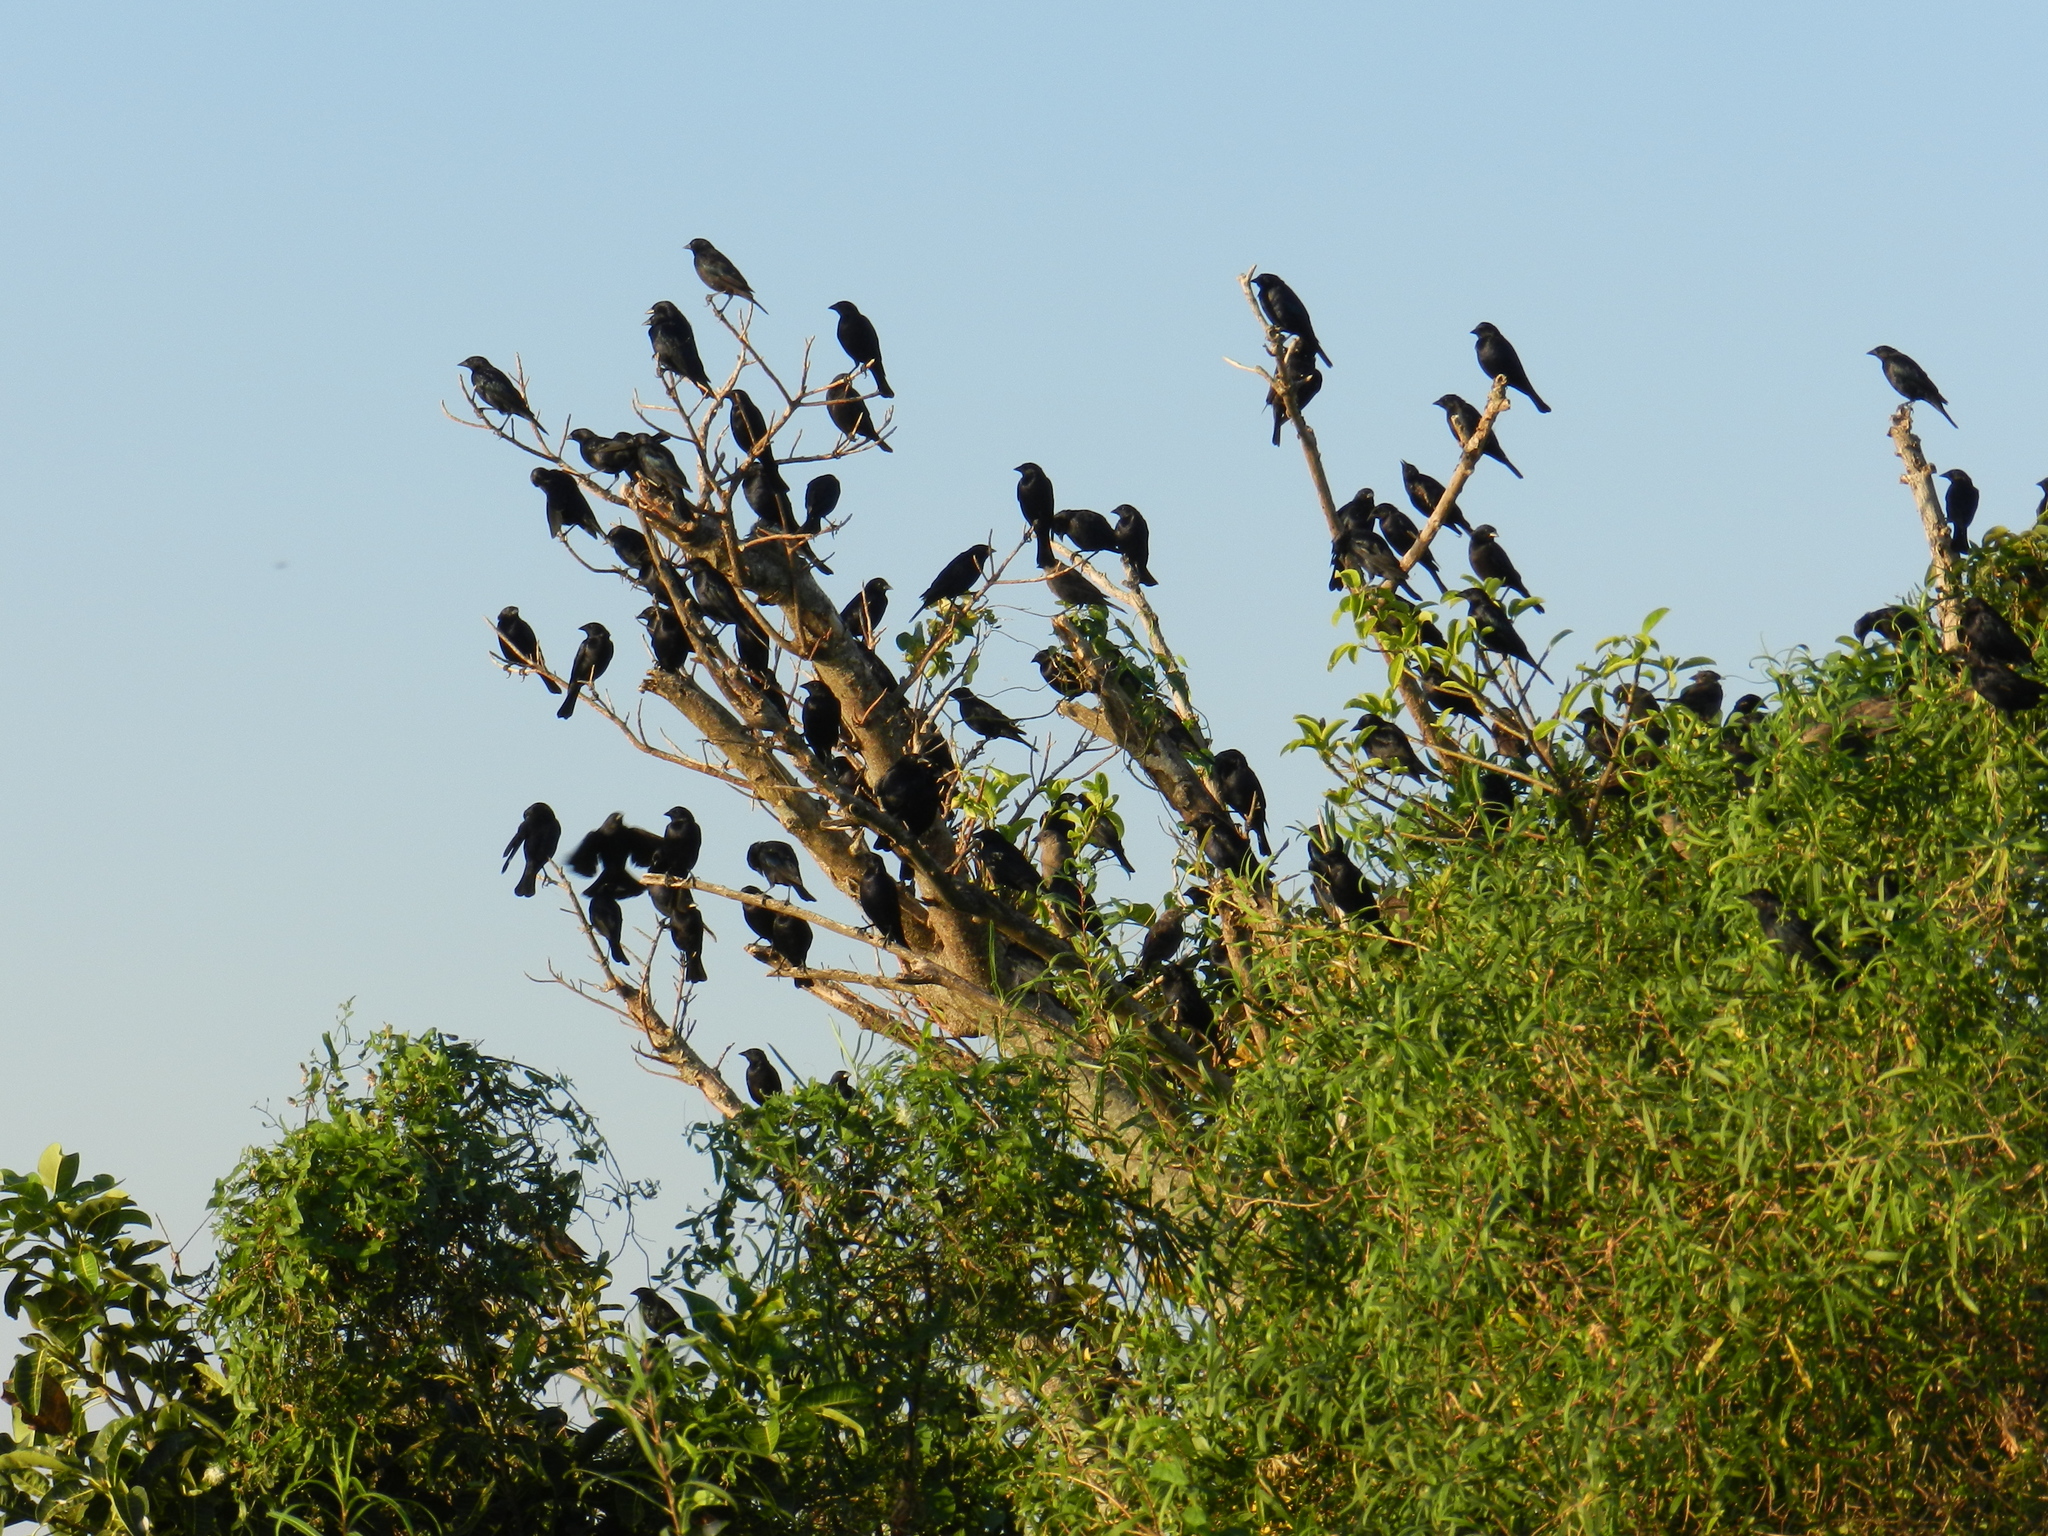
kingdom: Animalia
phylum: Chordata
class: Aves
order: Passeriformes
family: Icteridae
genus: Molothrus
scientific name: Molothrus bonariensis
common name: Shiny cowbird
